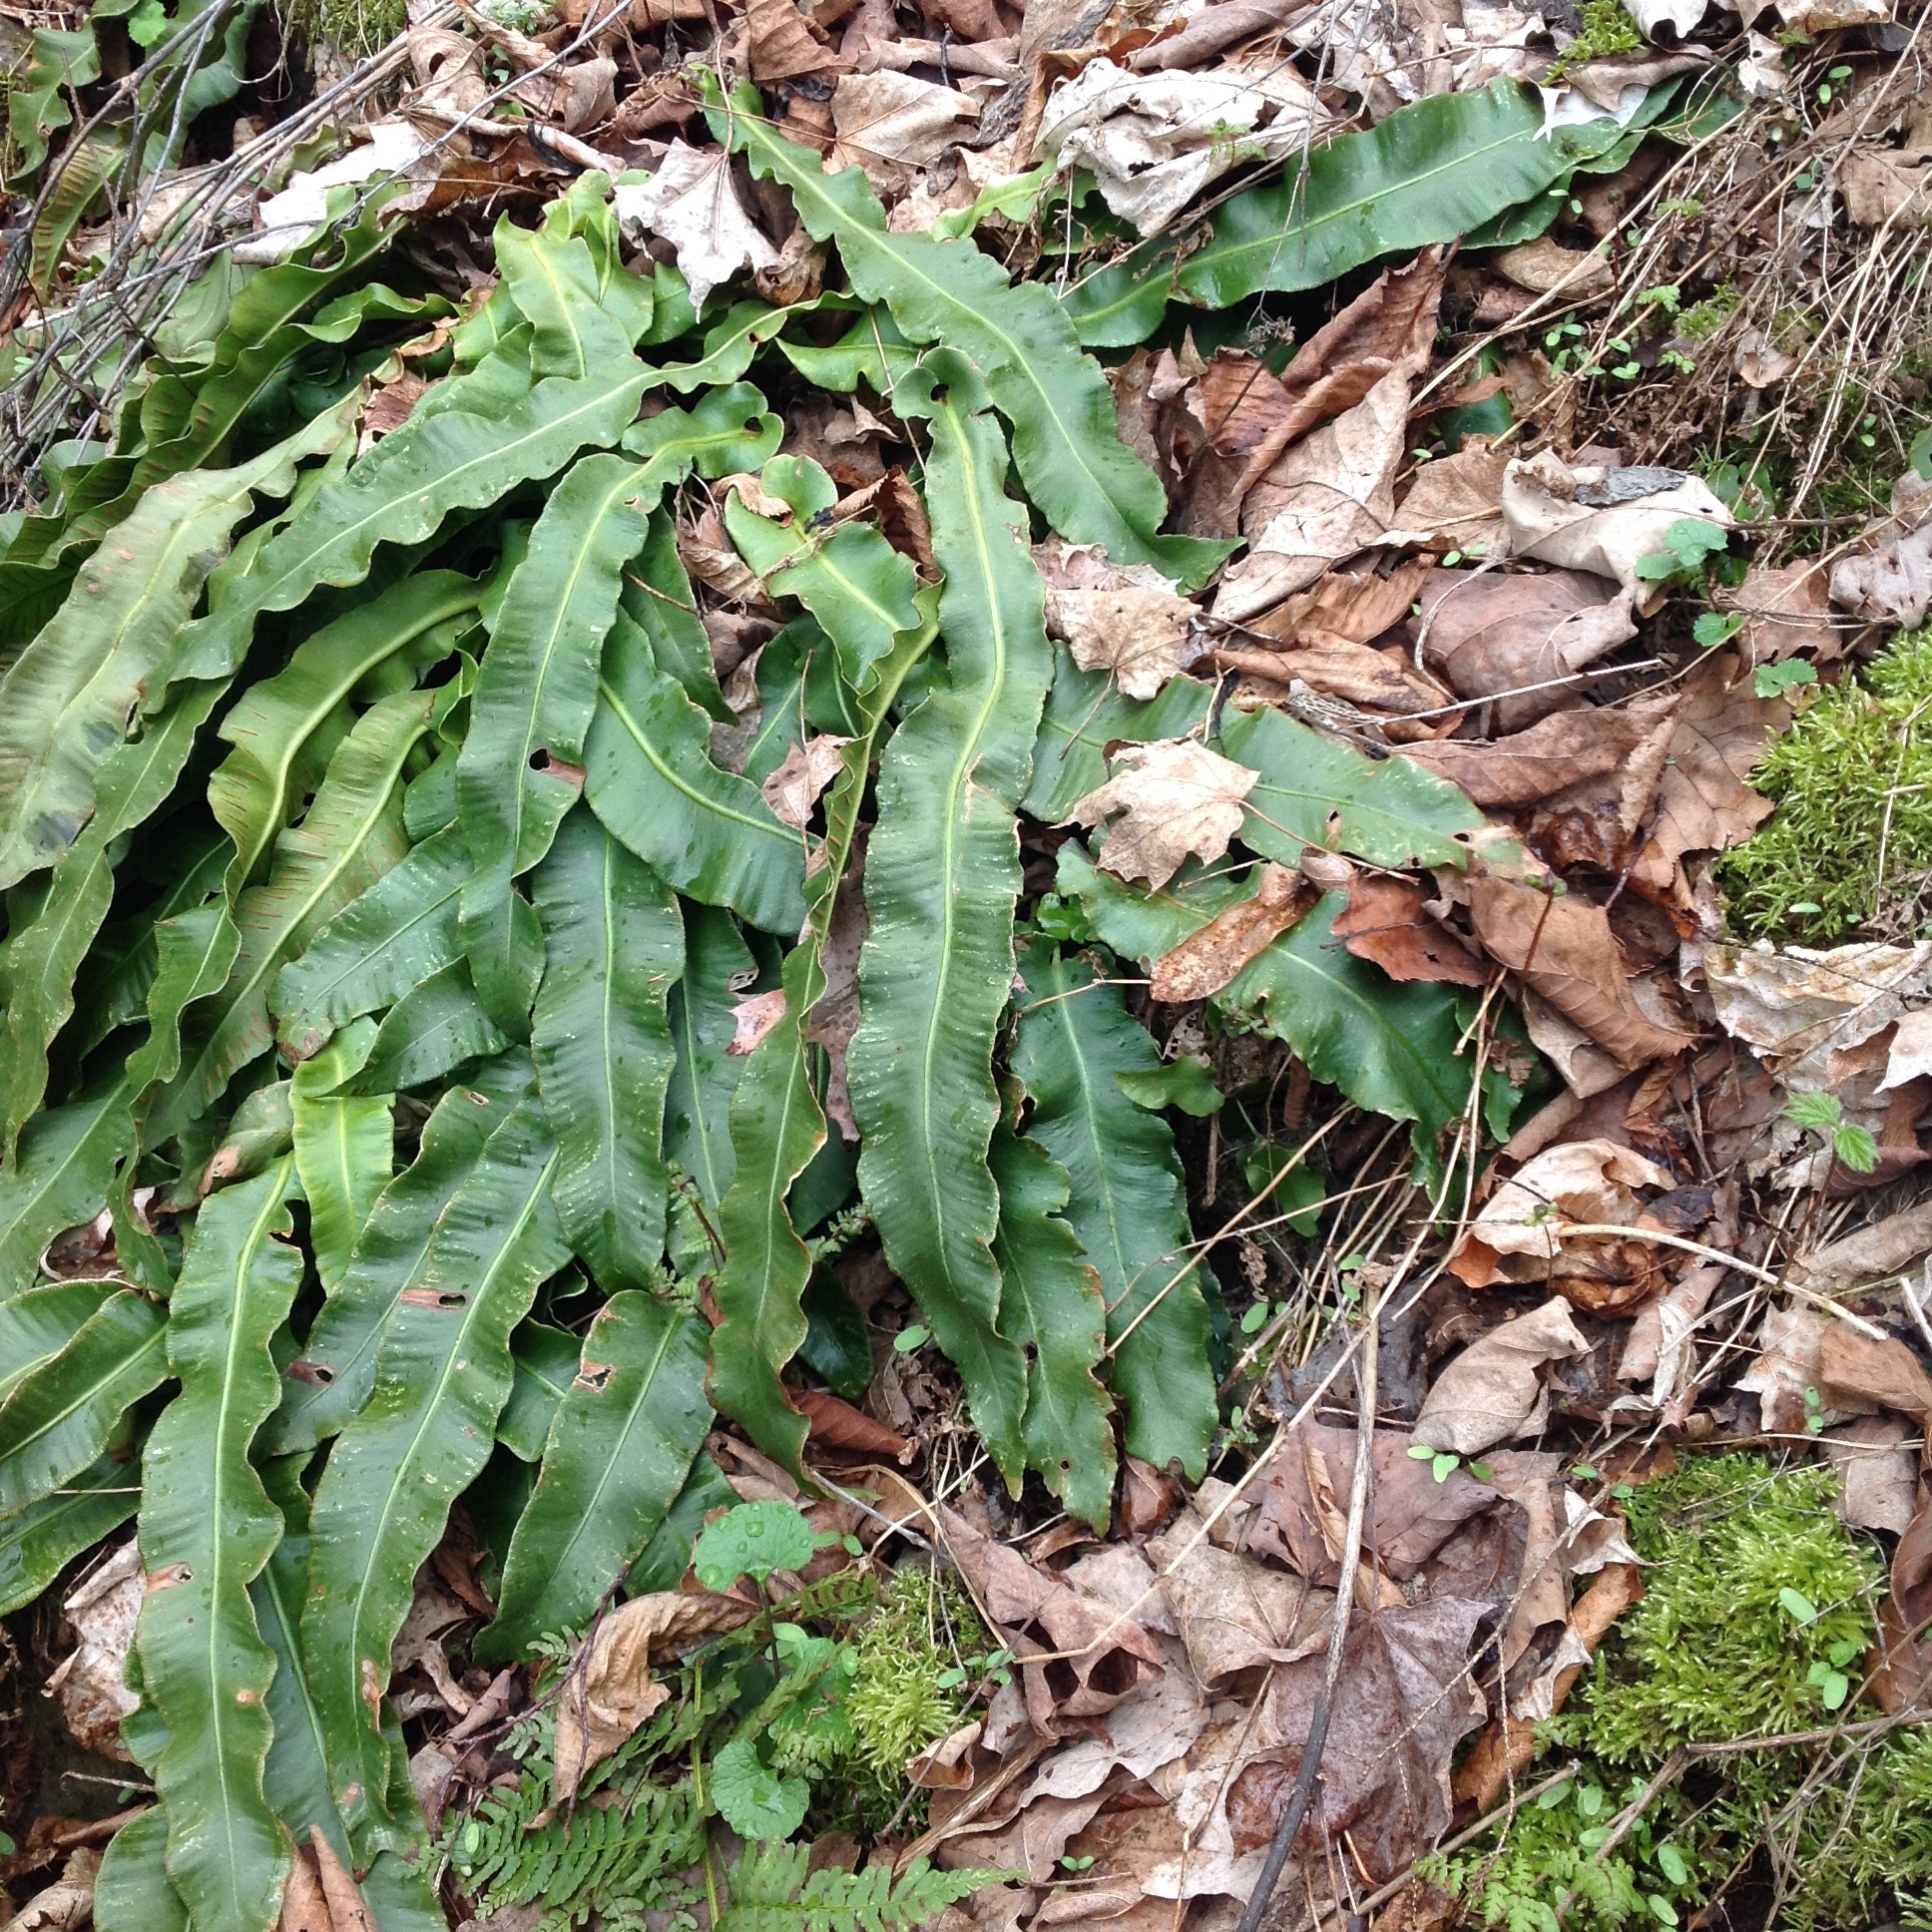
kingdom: Plantae
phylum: Tracheophyta
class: Polypodiopsida
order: Polypodiales
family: Aspleniaceae
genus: Asplenium
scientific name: Asplenium scolopendrium
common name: Hart's-tongue fern
